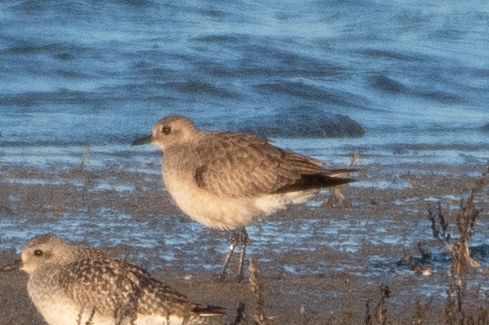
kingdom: Animalia
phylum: Chordata
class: Aves
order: Charadriiformes
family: Charadriidae
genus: Pluvialis
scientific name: Pluvialis squatarola
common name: Grey plover
